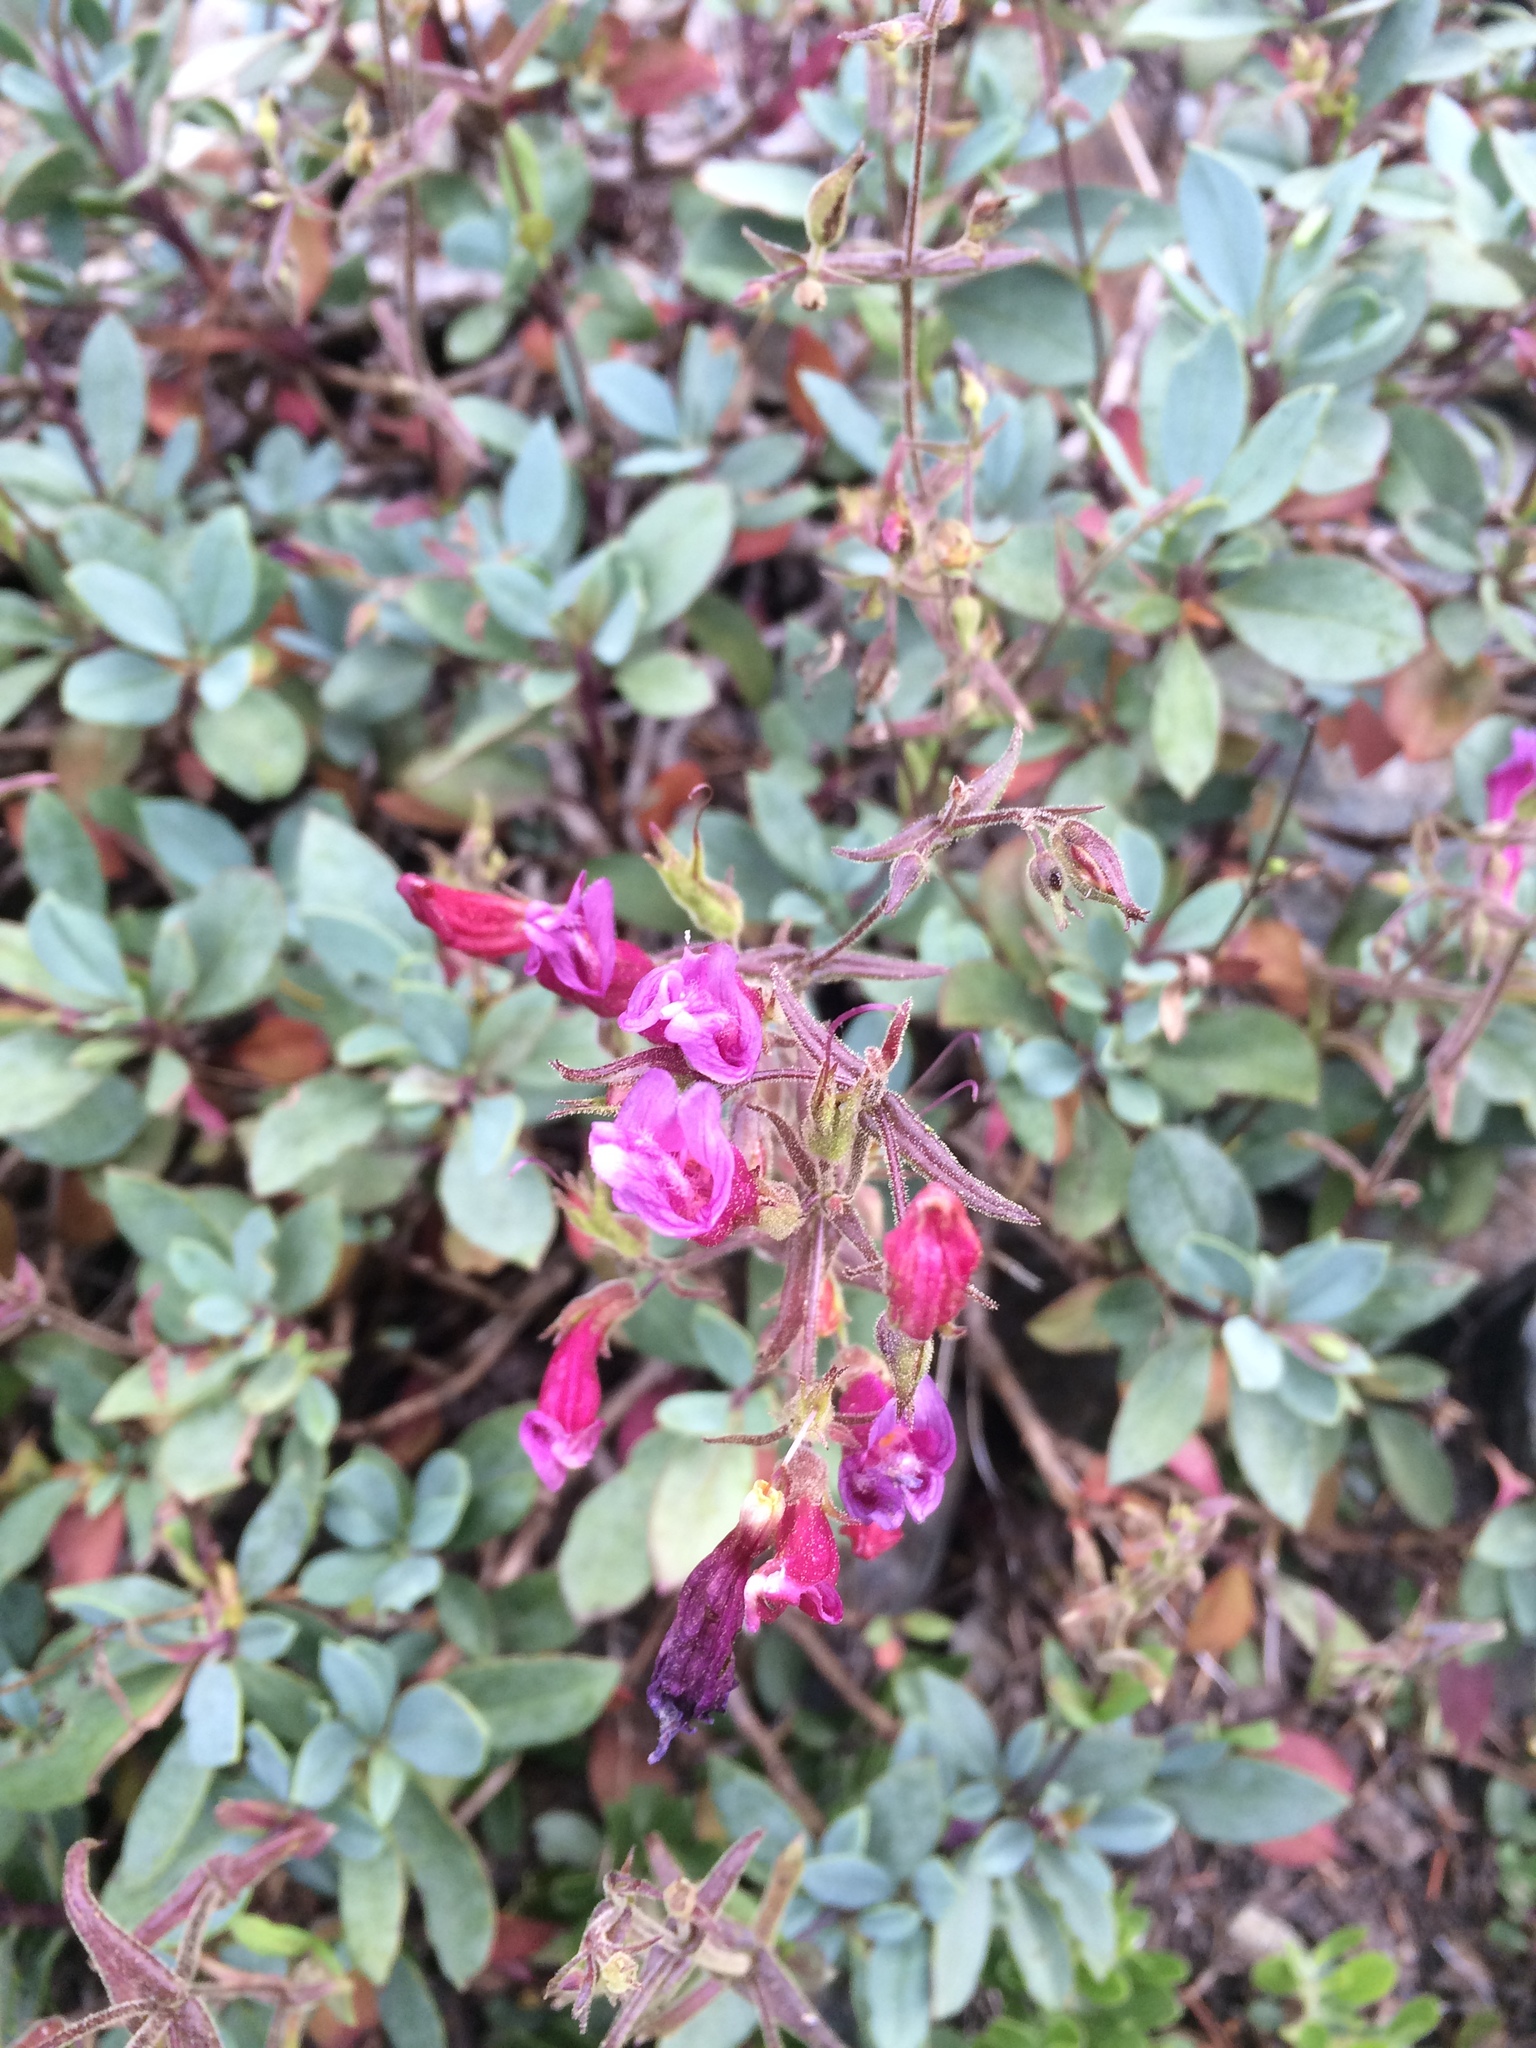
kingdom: Plantae
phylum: Tracheophyta
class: Magnoliopsida
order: Lamiales
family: Plantaginaceae
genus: Penstemon
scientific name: Penstemon newberryi
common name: Mountain-pride
